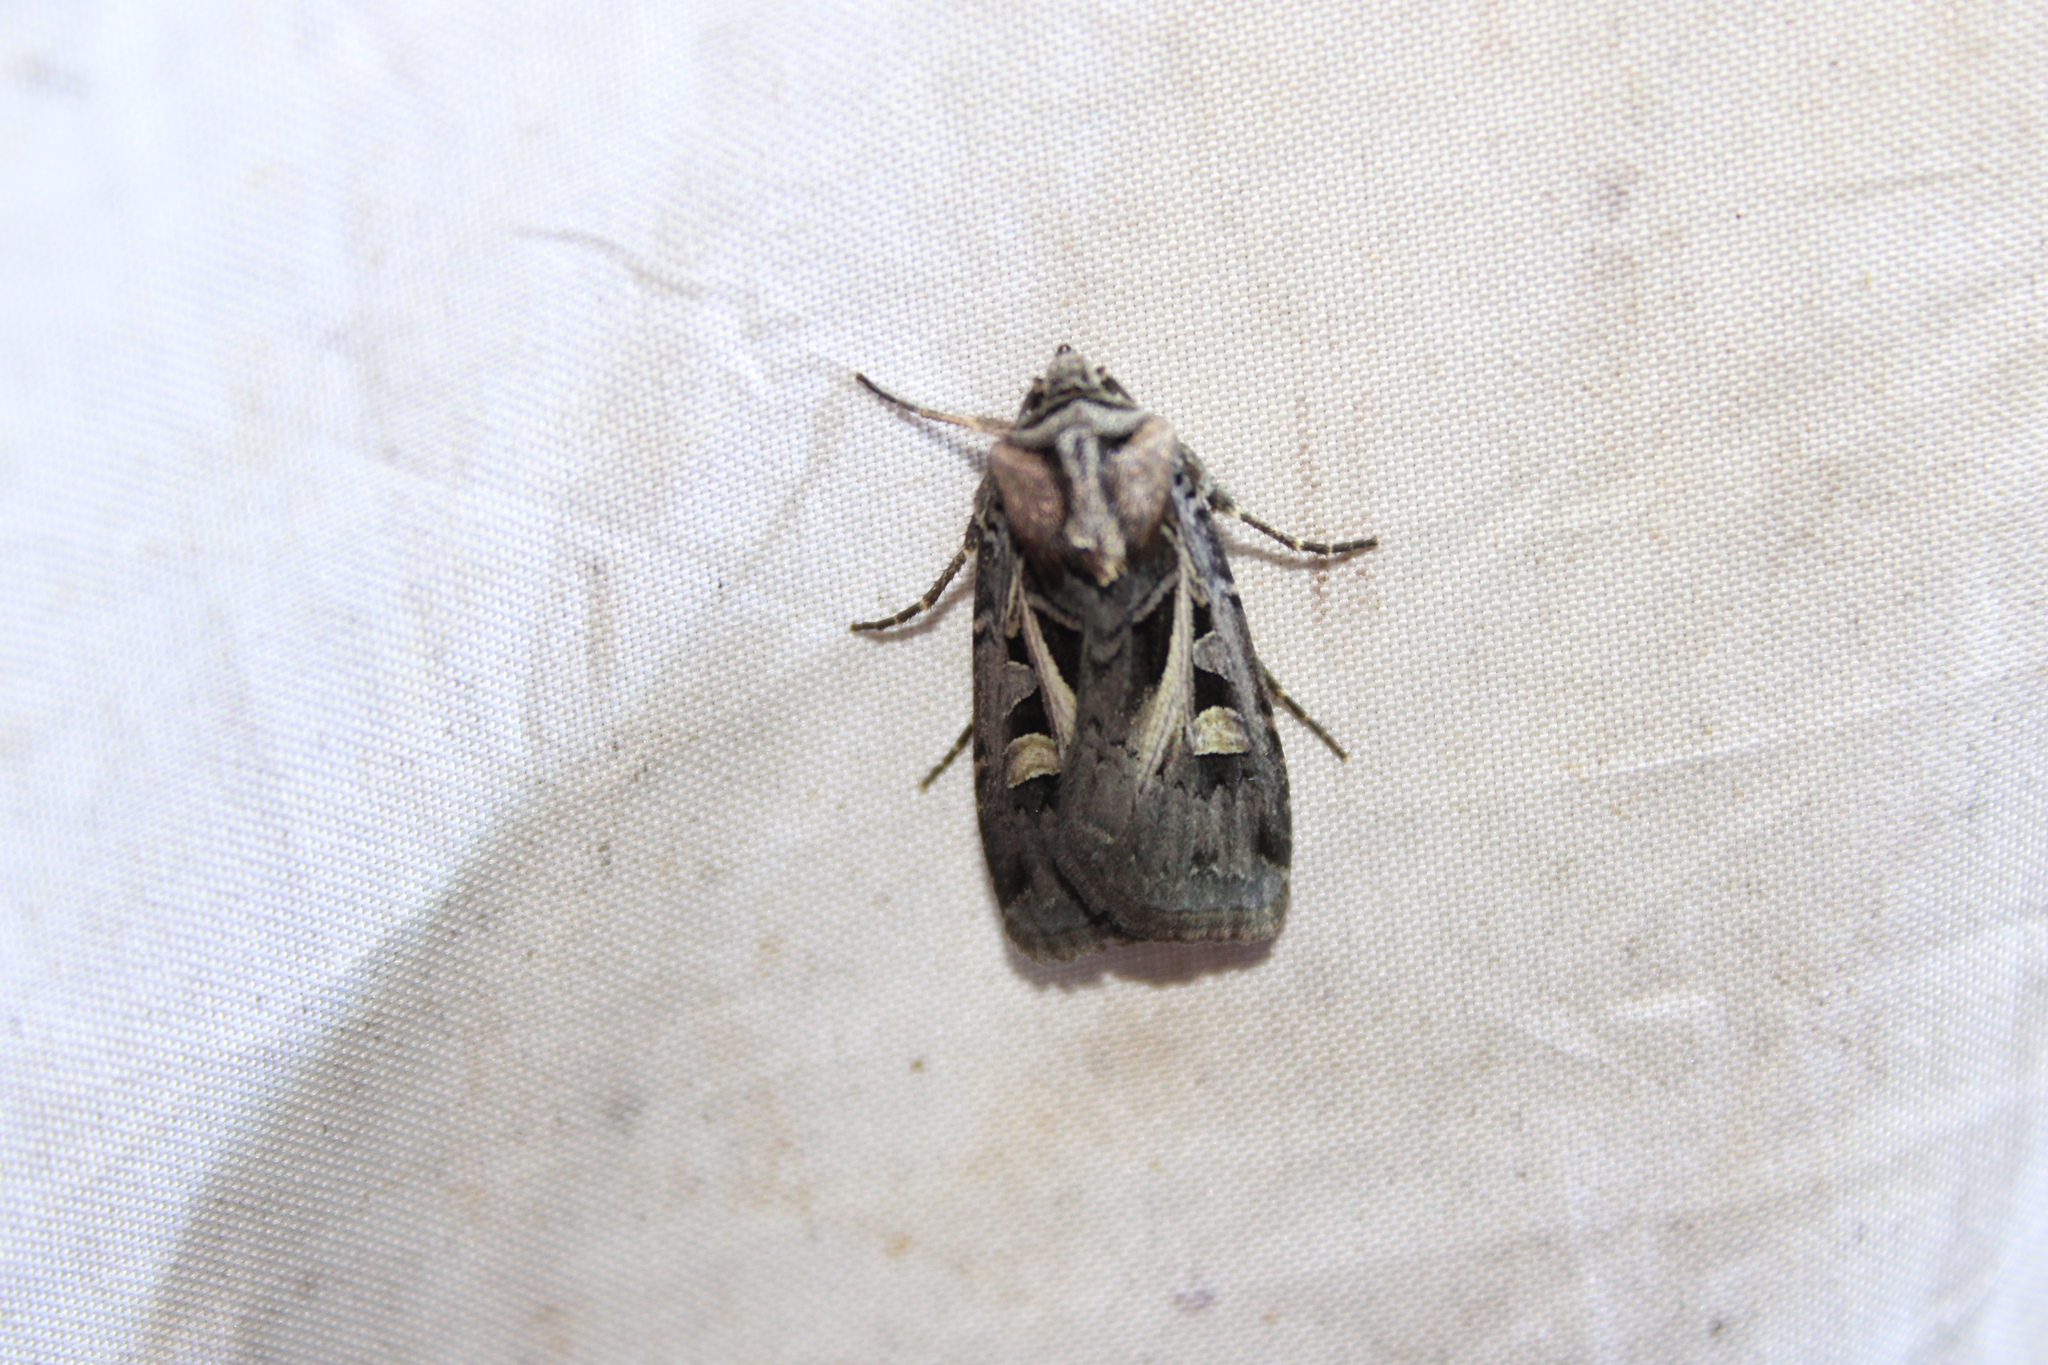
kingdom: Animalia
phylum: Arthropoda
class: Insecta
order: Lepidoptera
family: Noctuidae
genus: Feltia
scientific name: Feltia herilis
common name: Master's dart
